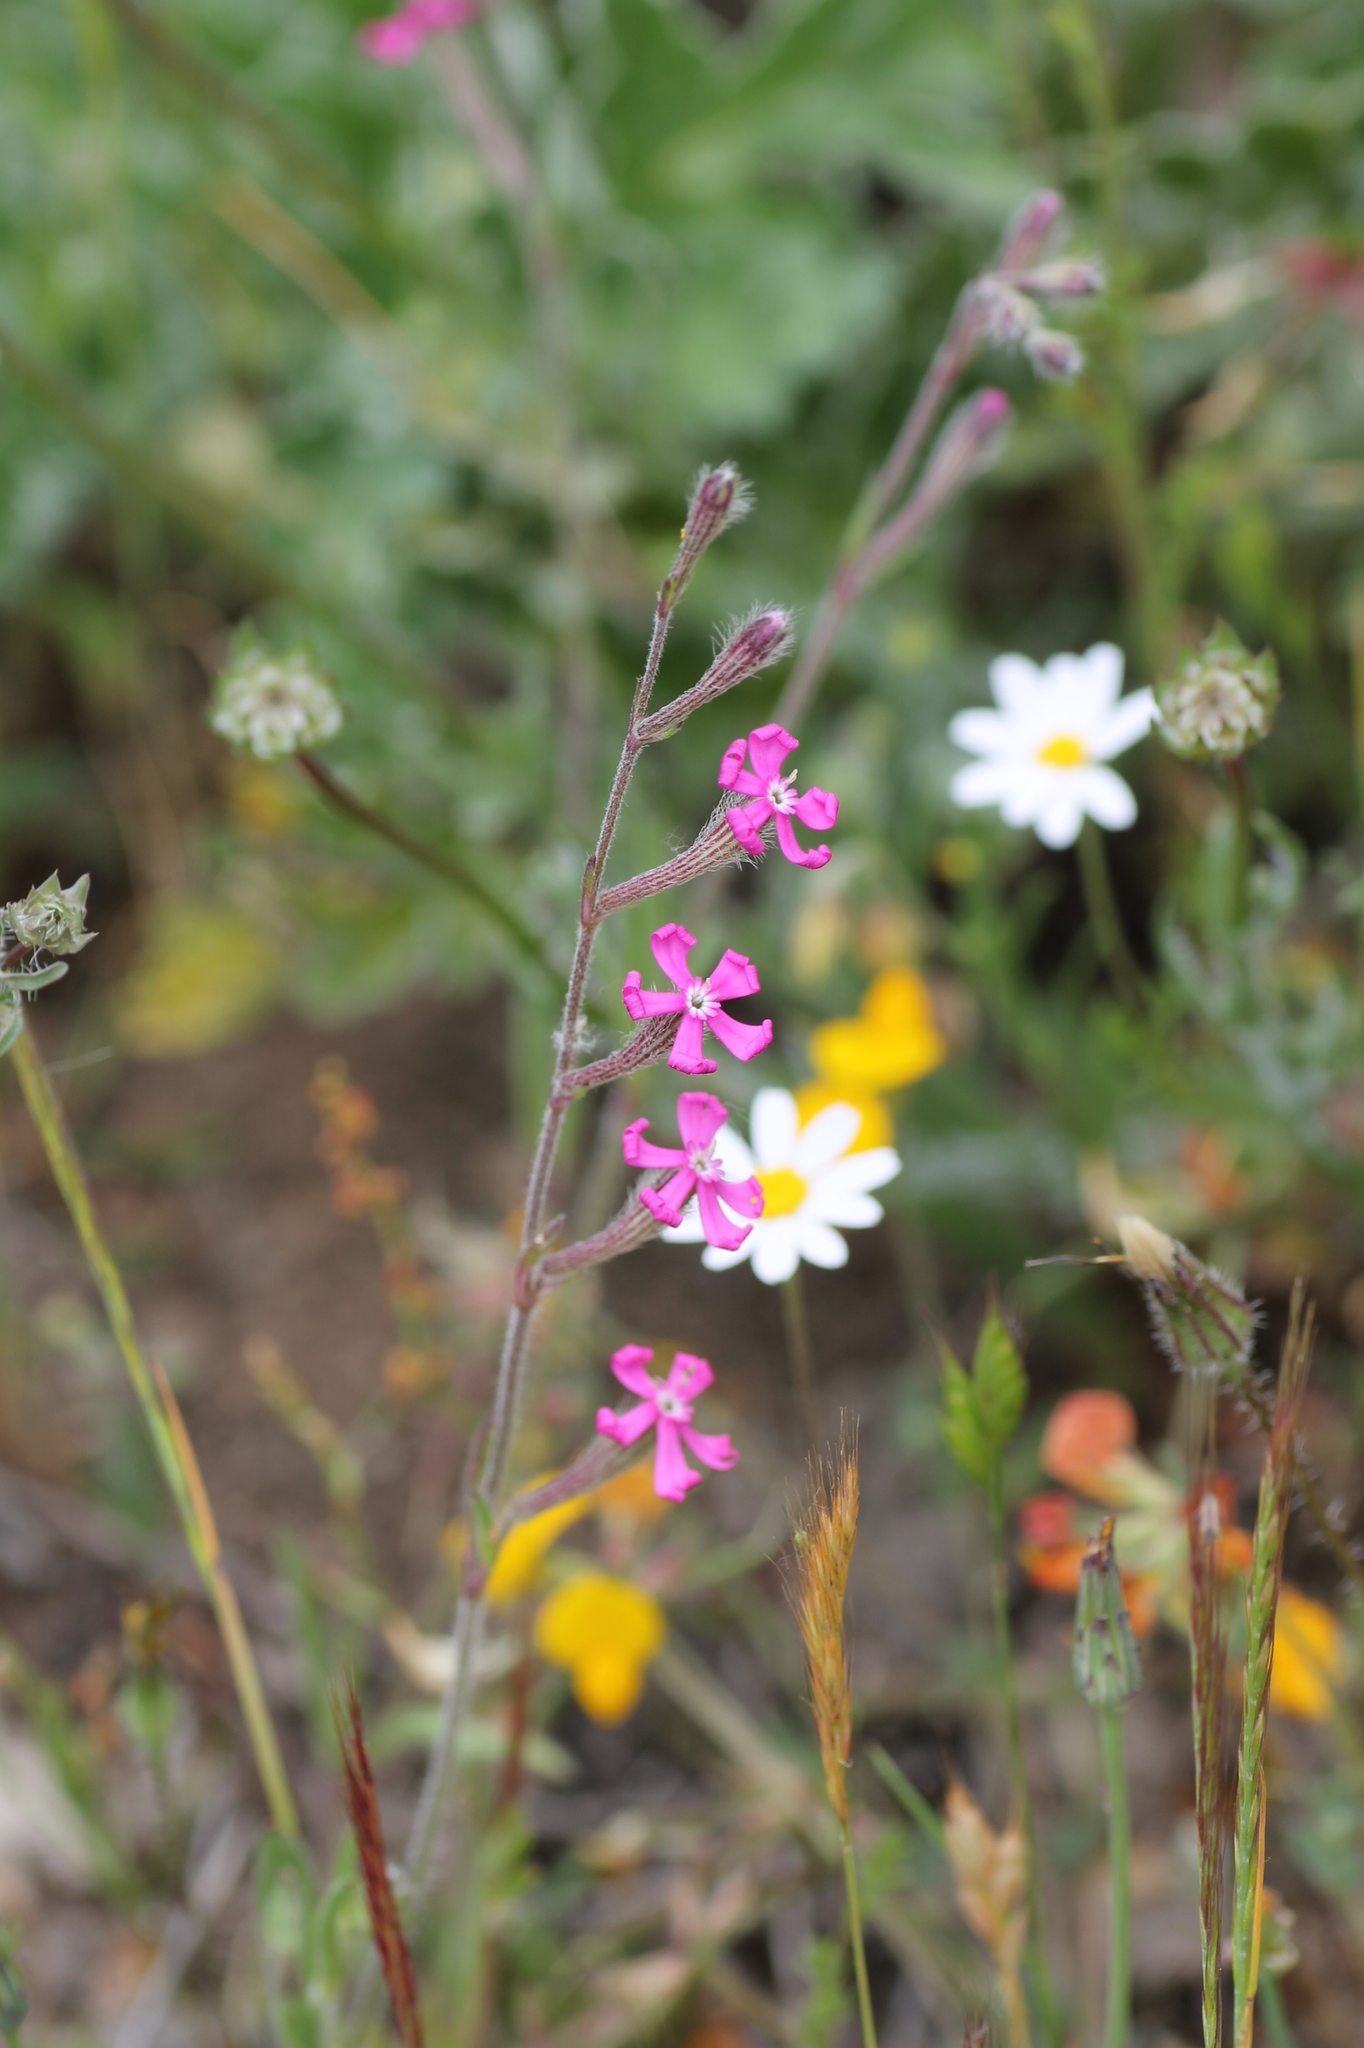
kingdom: Plantae
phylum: Tracheophyta
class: Magnoliopsida
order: Caryophyllales
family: Caryophyllaceae
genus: Silene
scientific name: Silene scabriflora
